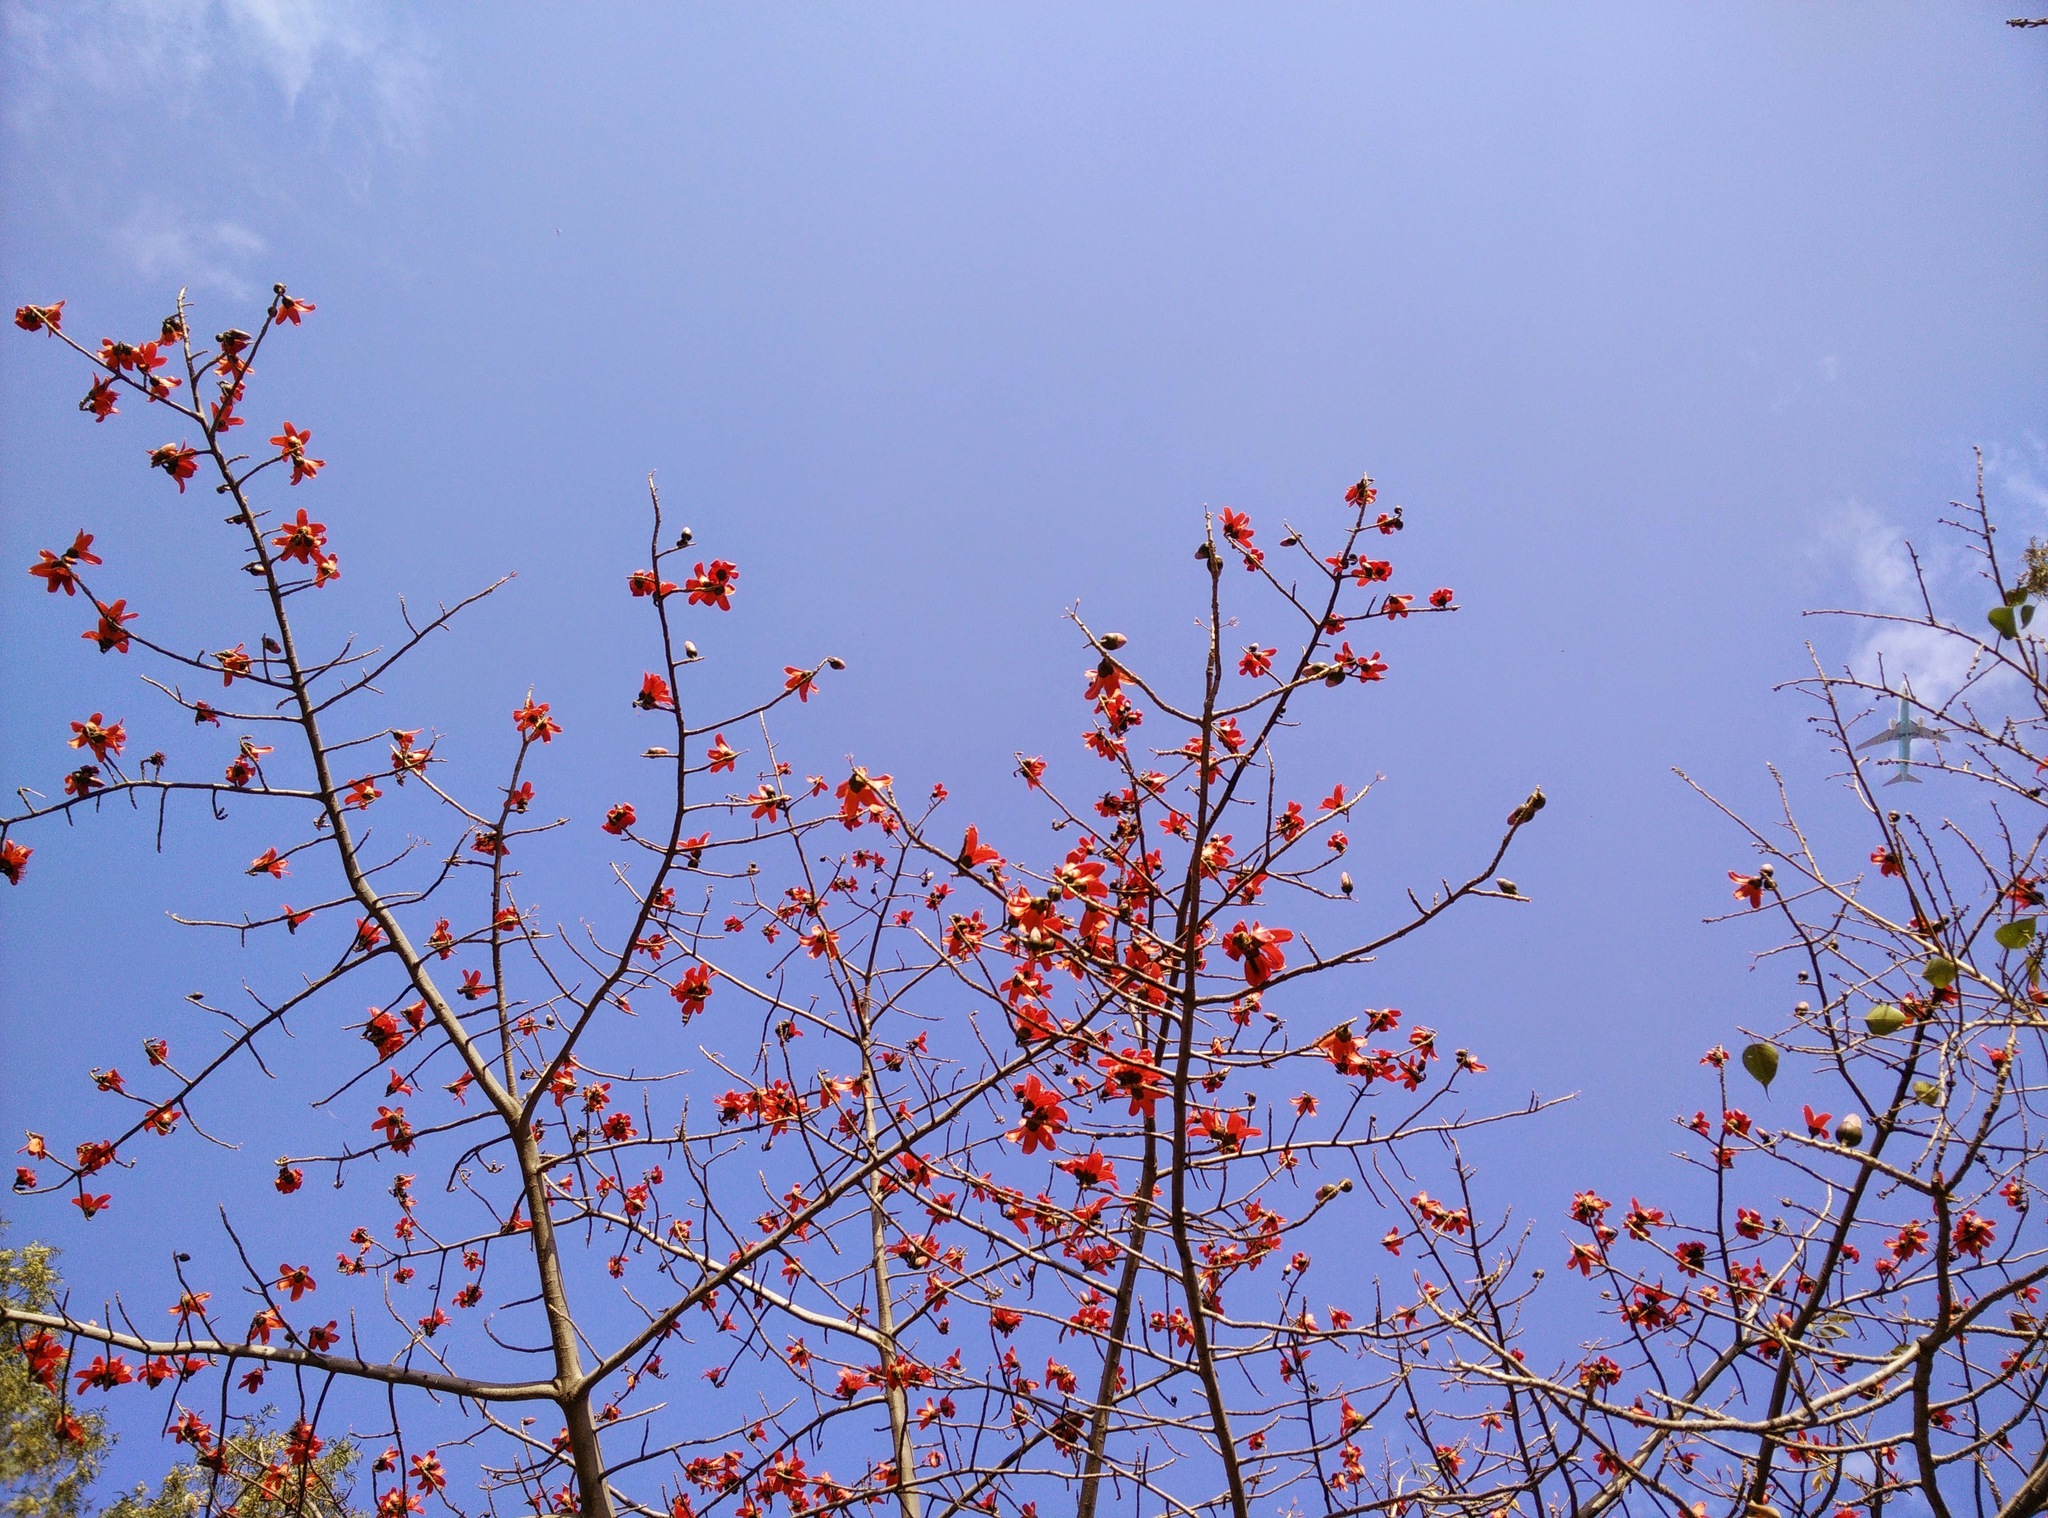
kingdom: Plantae
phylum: Tracheophyta
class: Magnoliopsida
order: Malvales
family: Malvaceae
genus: Bombax
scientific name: Bombax ceiba
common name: Northern-cottonwood
